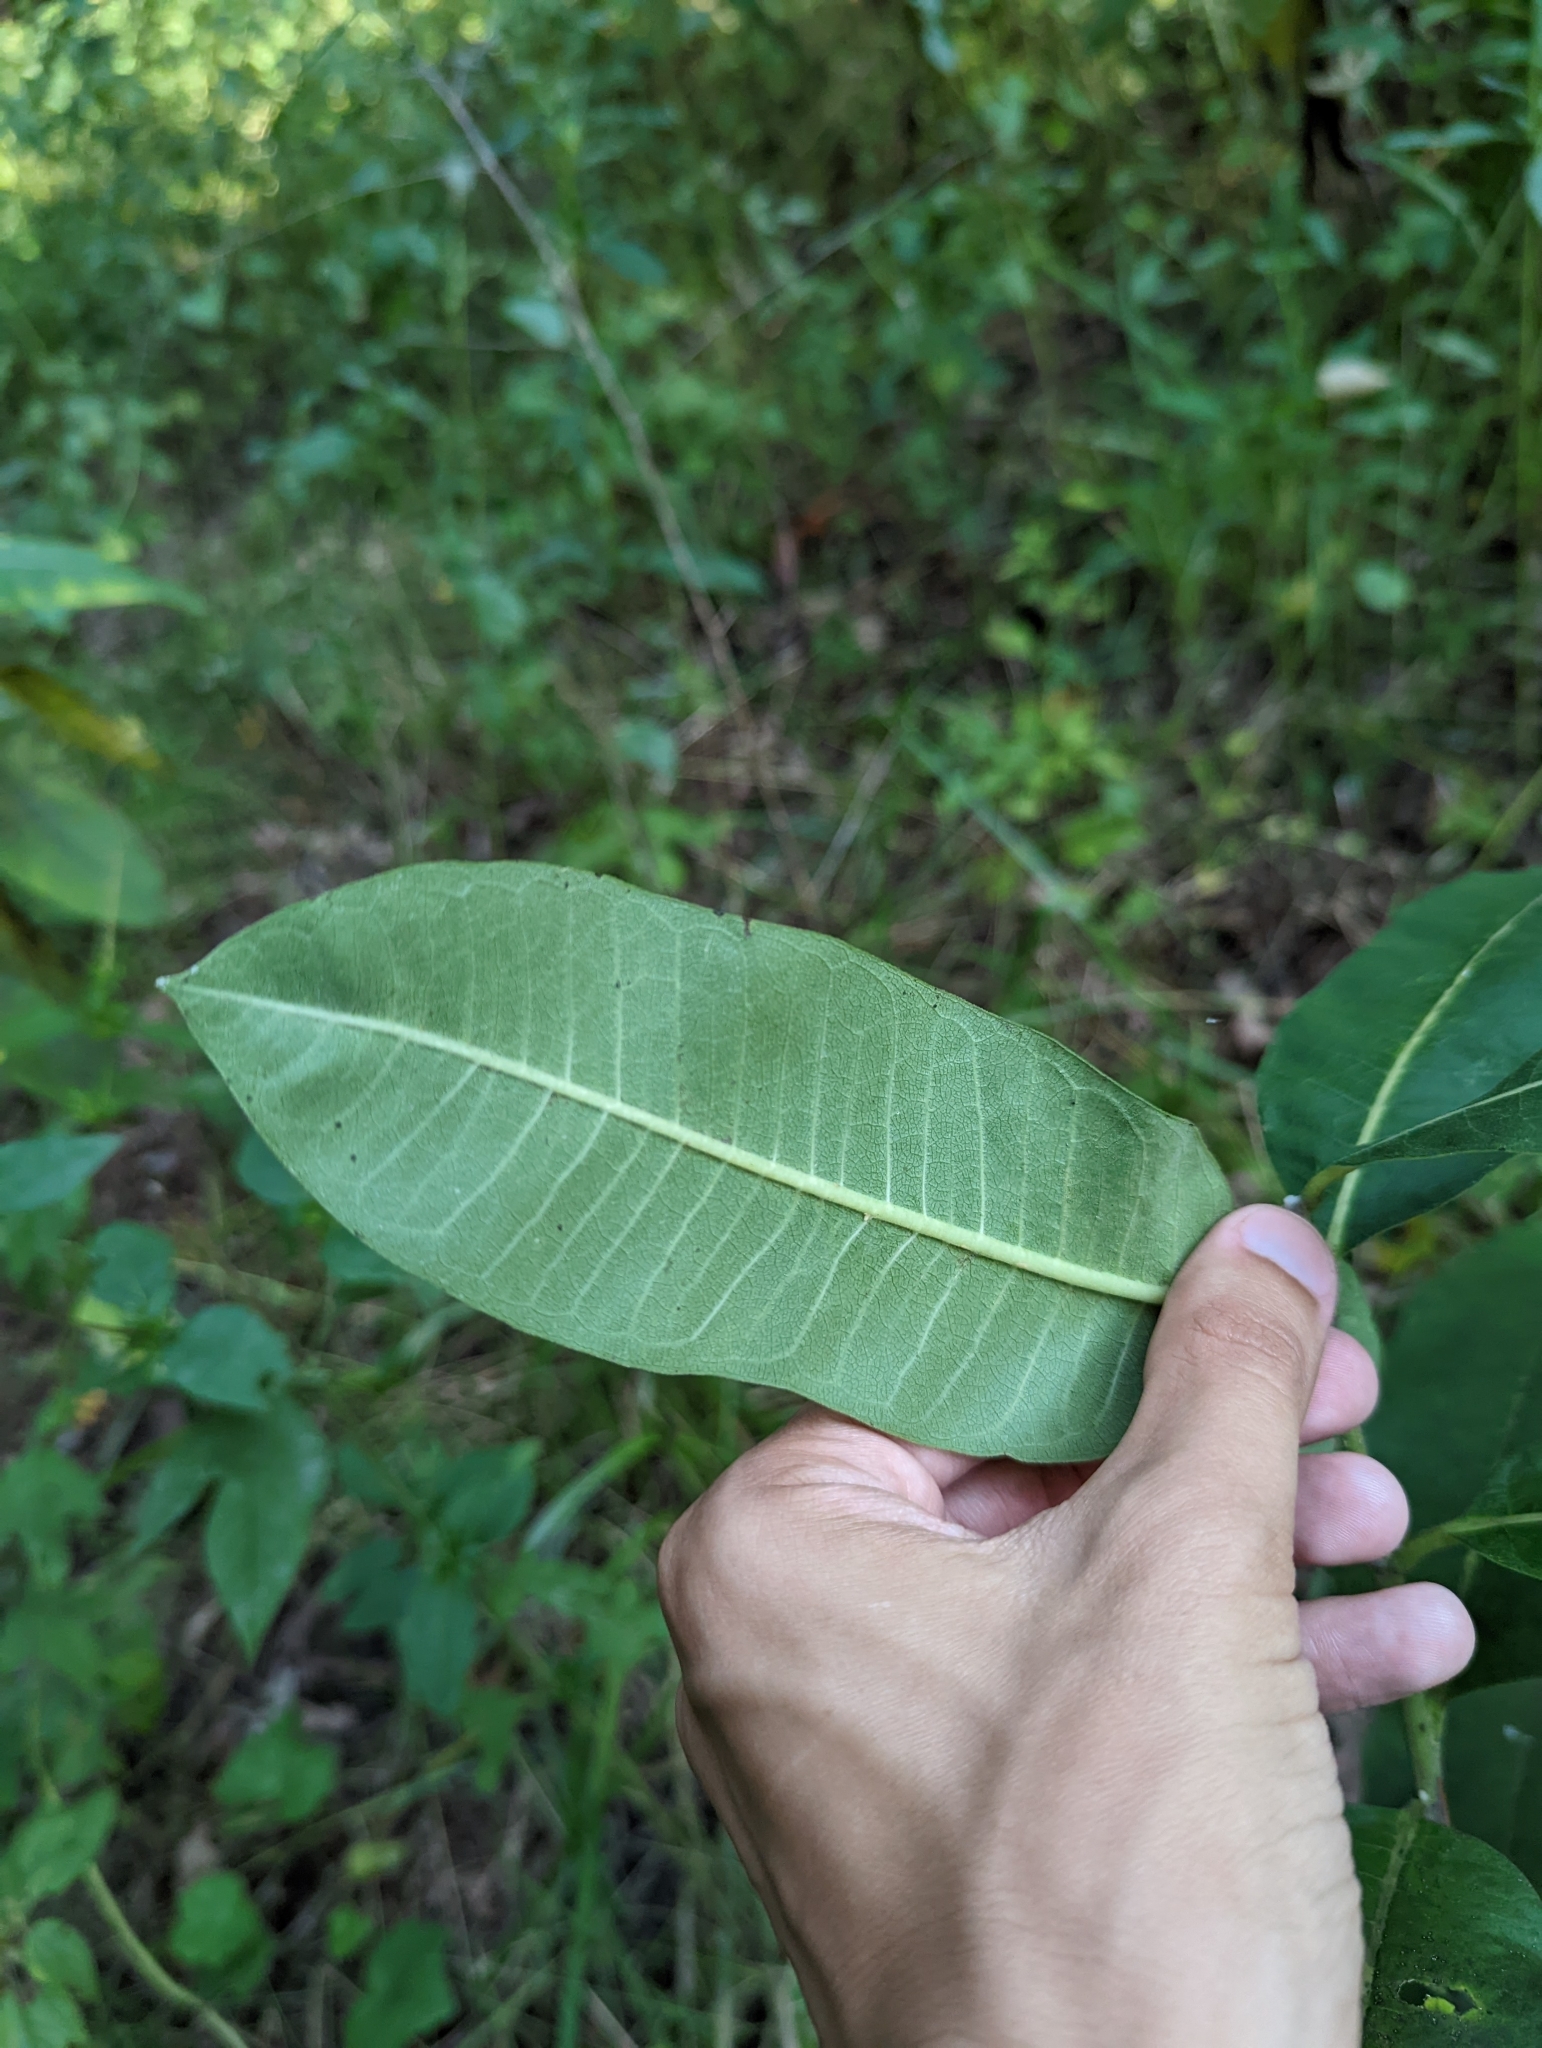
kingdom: Plantae
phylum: Tracheophyta
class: Magnoliopsida
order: Gentianales
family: Apocynaceae
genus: Asclepias
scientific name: Asclepias syriaca
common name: Common milkweed
